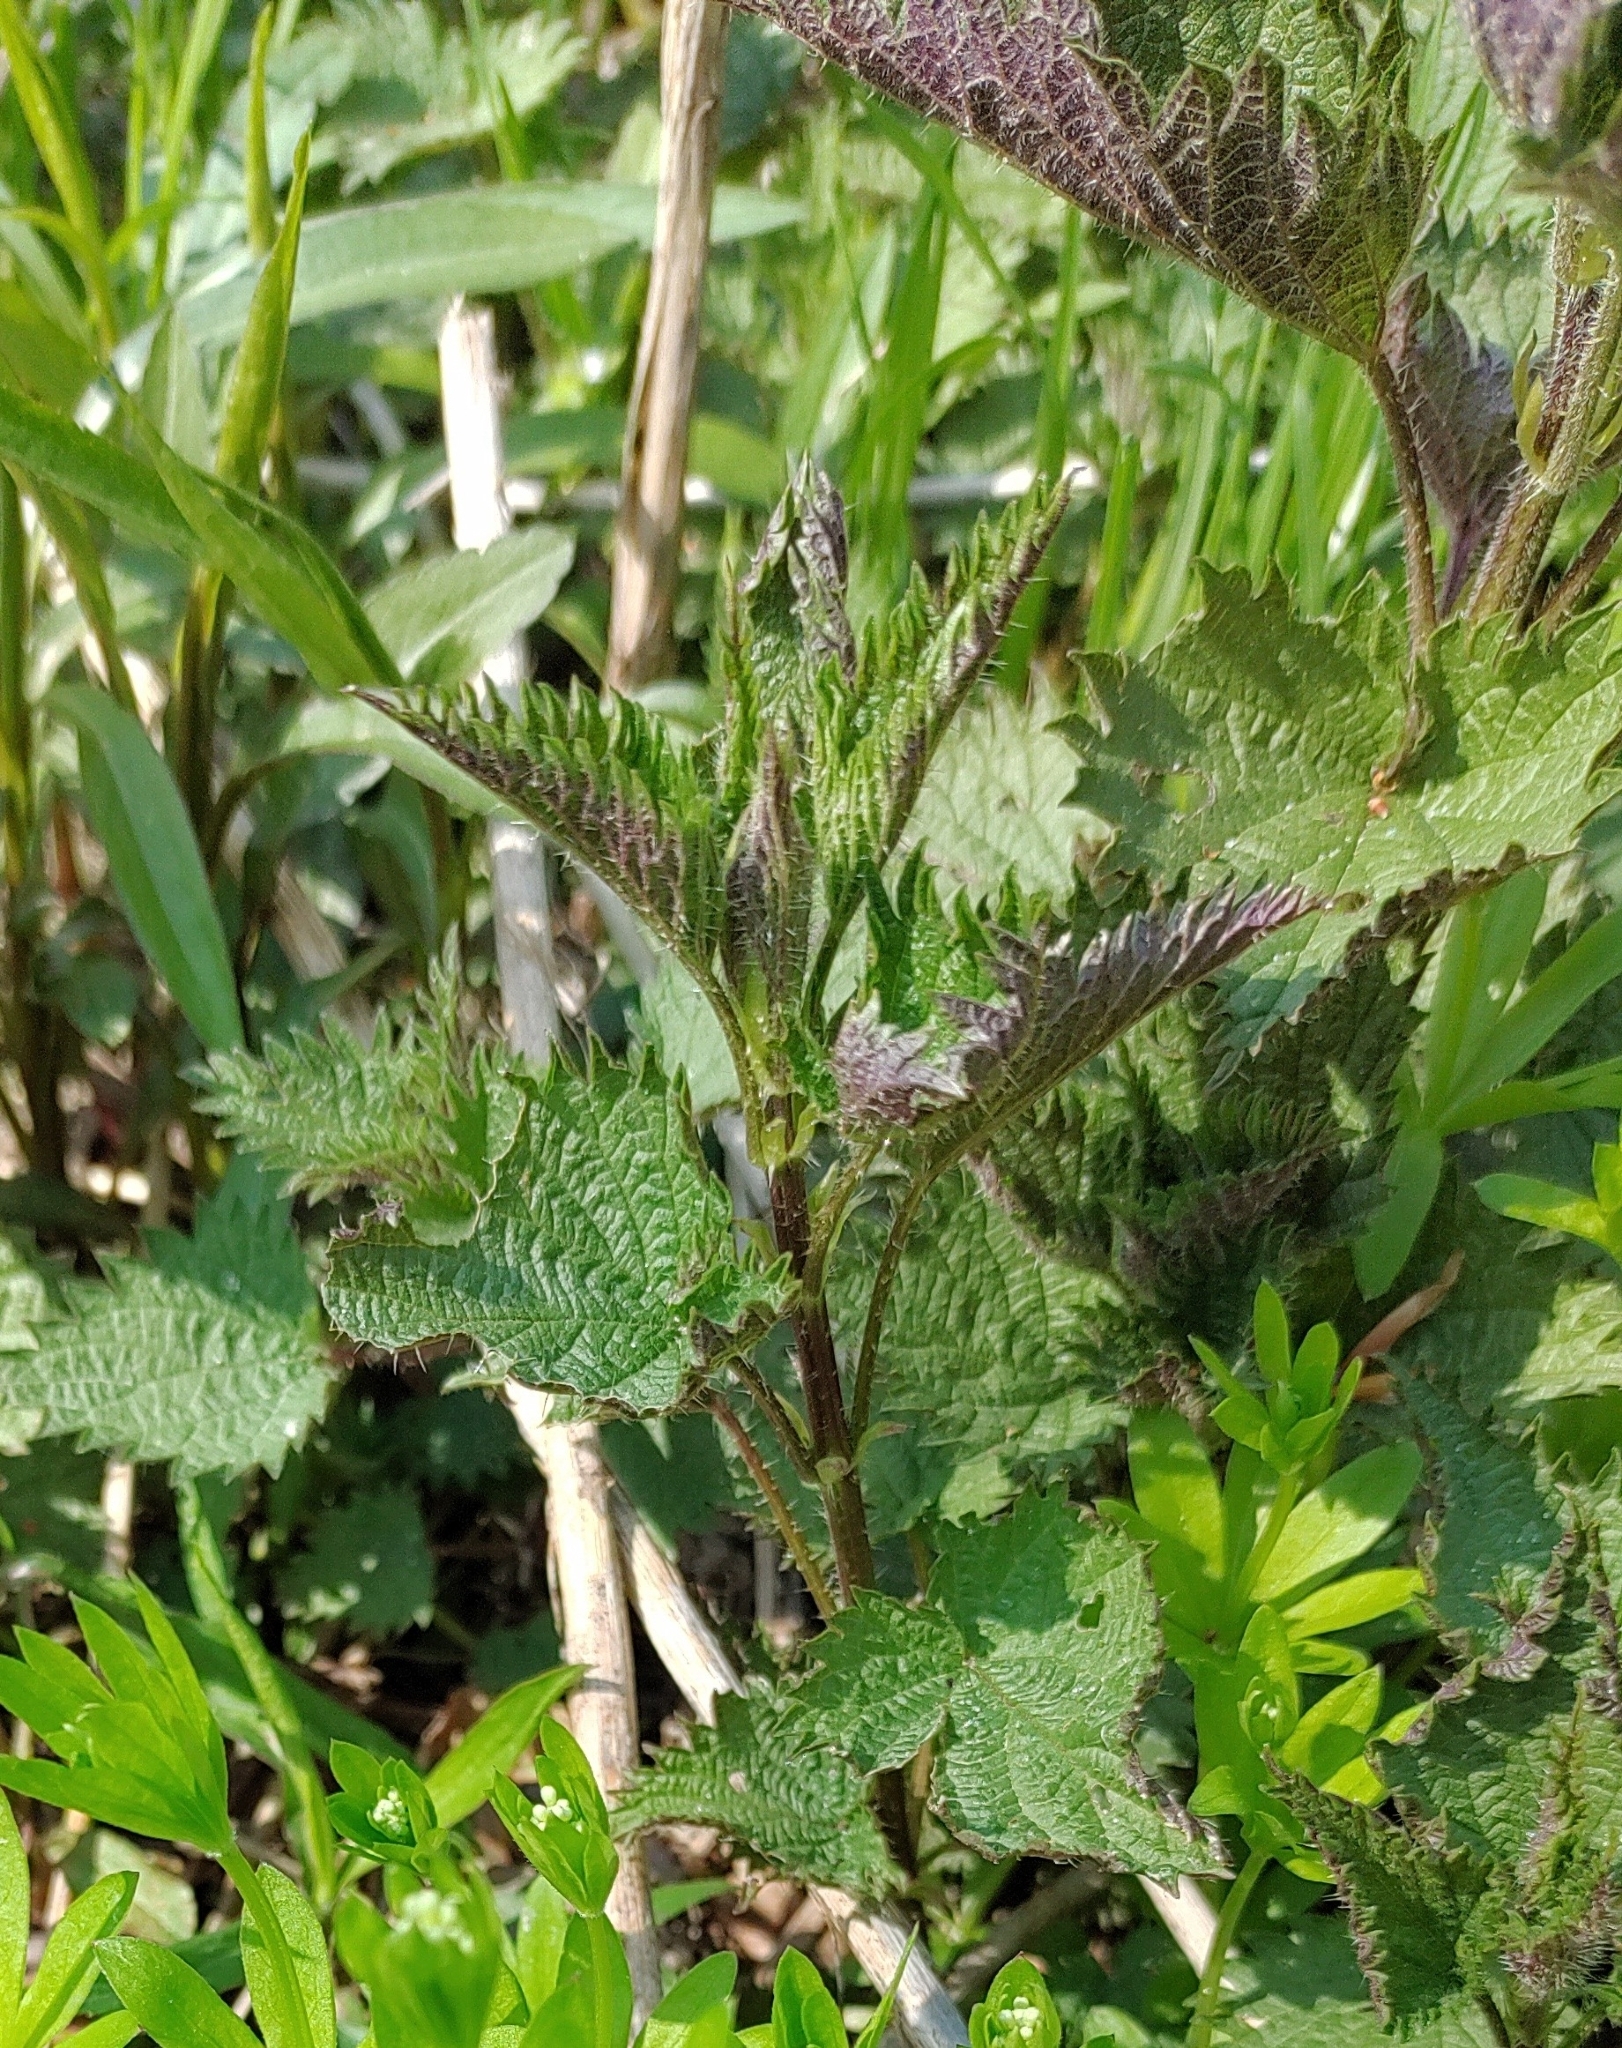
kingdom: Plantae
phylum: Tracheophyta
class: Magnoliopsida
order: Rosales
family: Urticaceae
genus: Urtica
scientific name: Urtica dioica
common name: Common nettle
